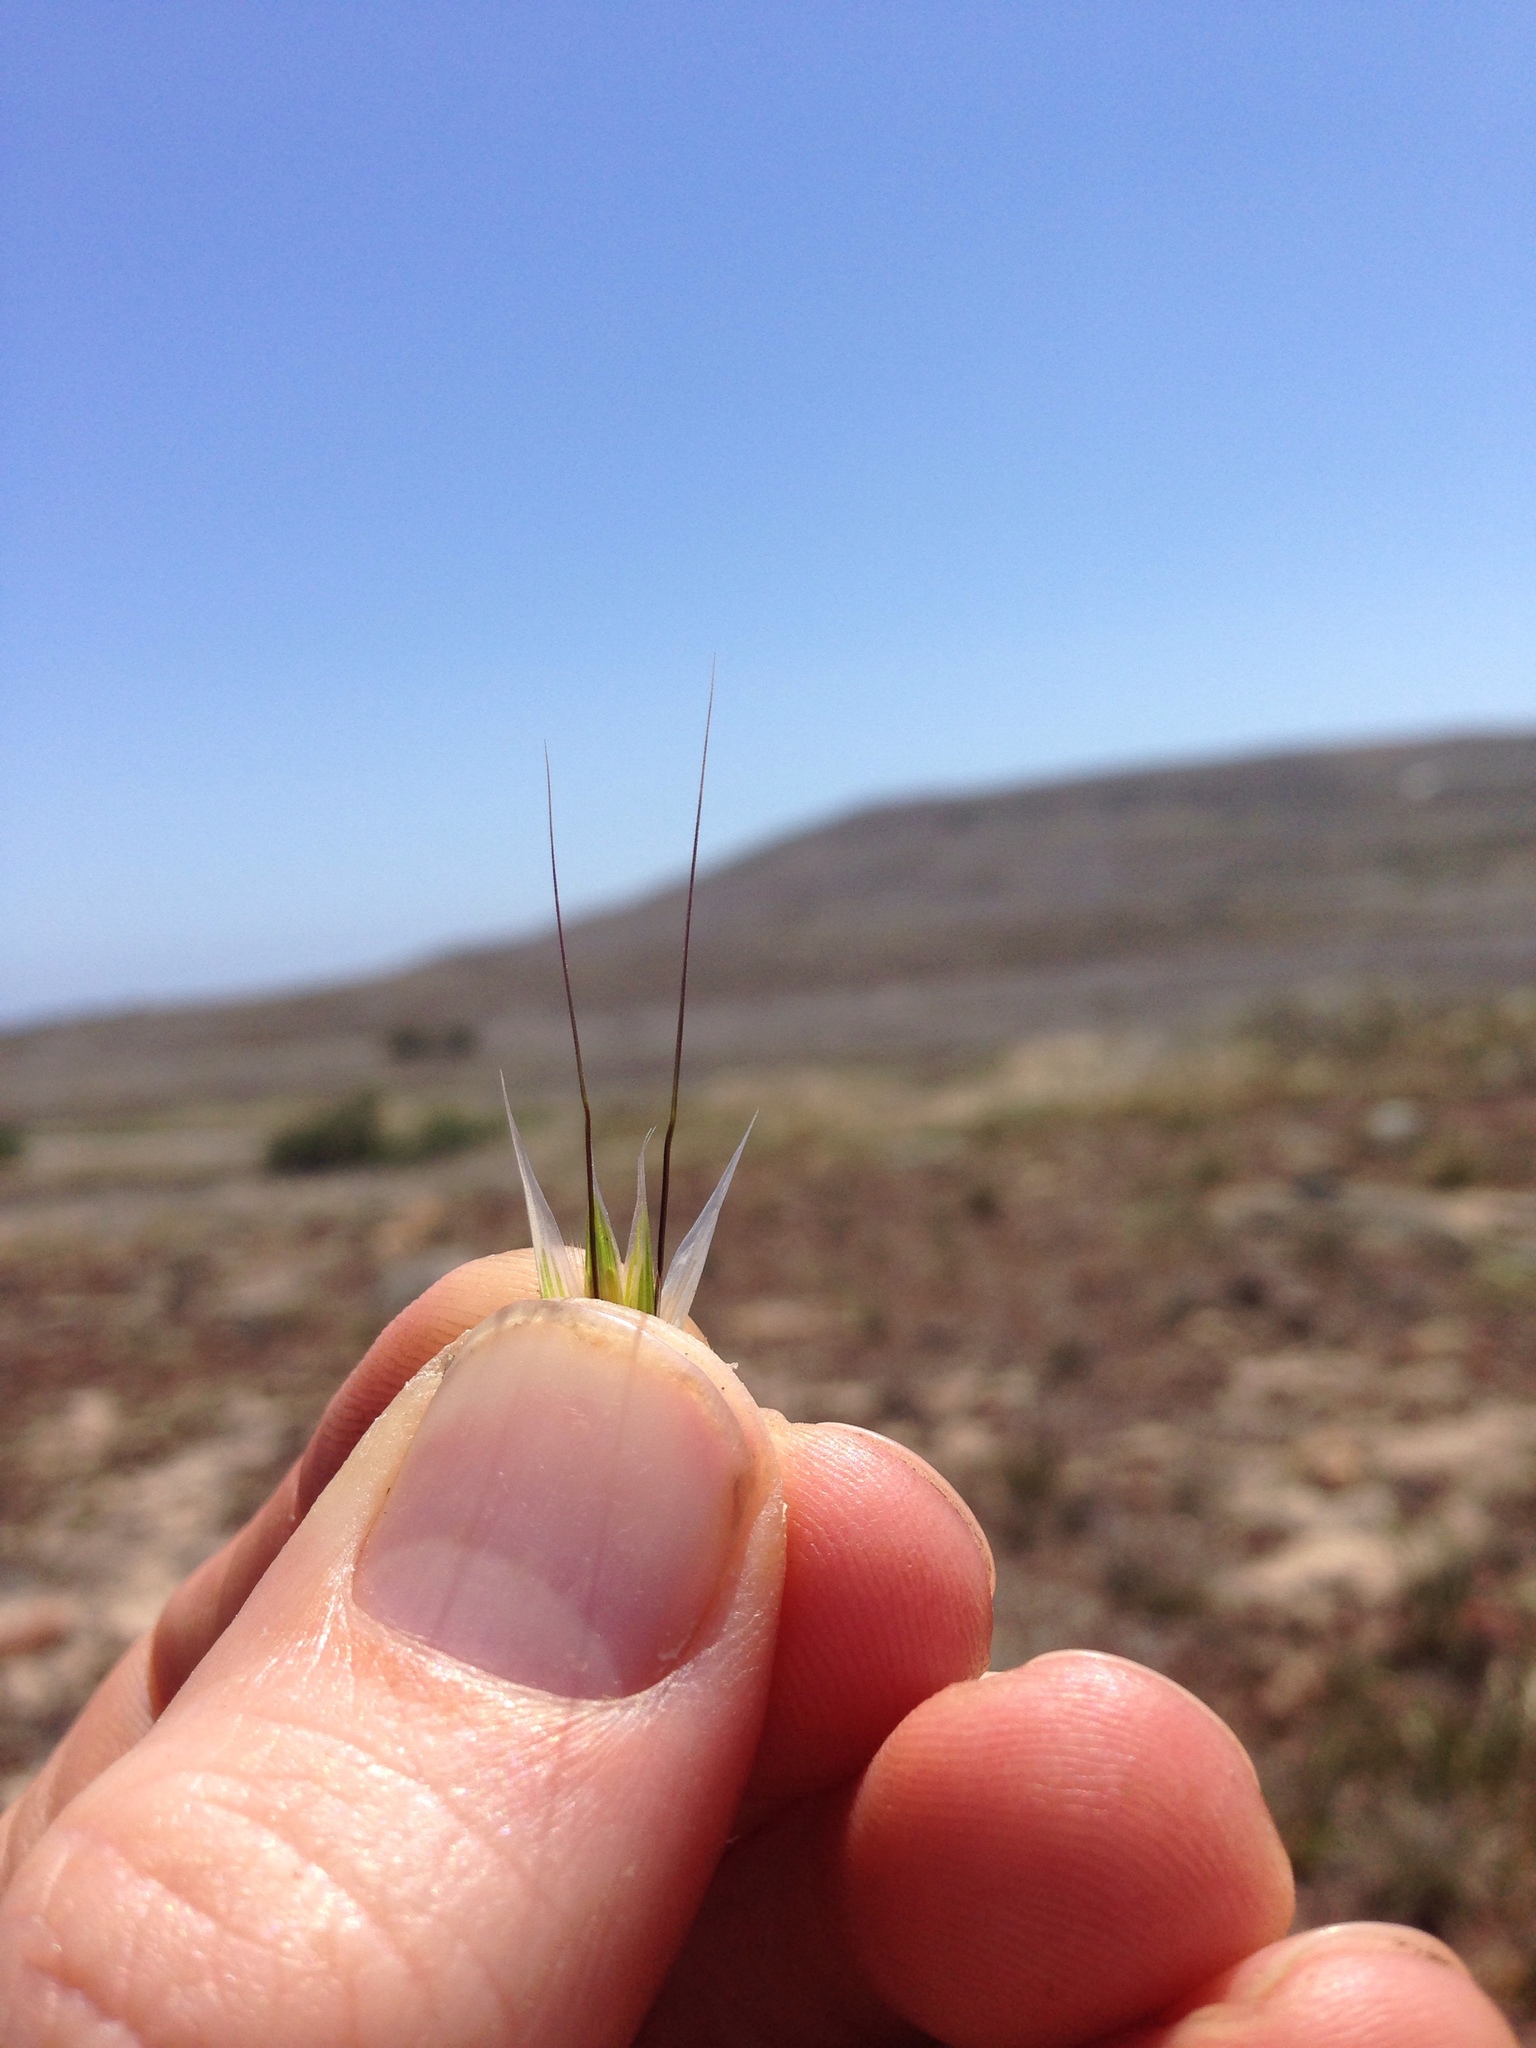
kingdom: Plantae
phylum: Tracheophyta
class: Liliopsida
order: Poales
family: Poaceae
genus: Avena
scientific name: Avena barbata
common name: Slender oat
